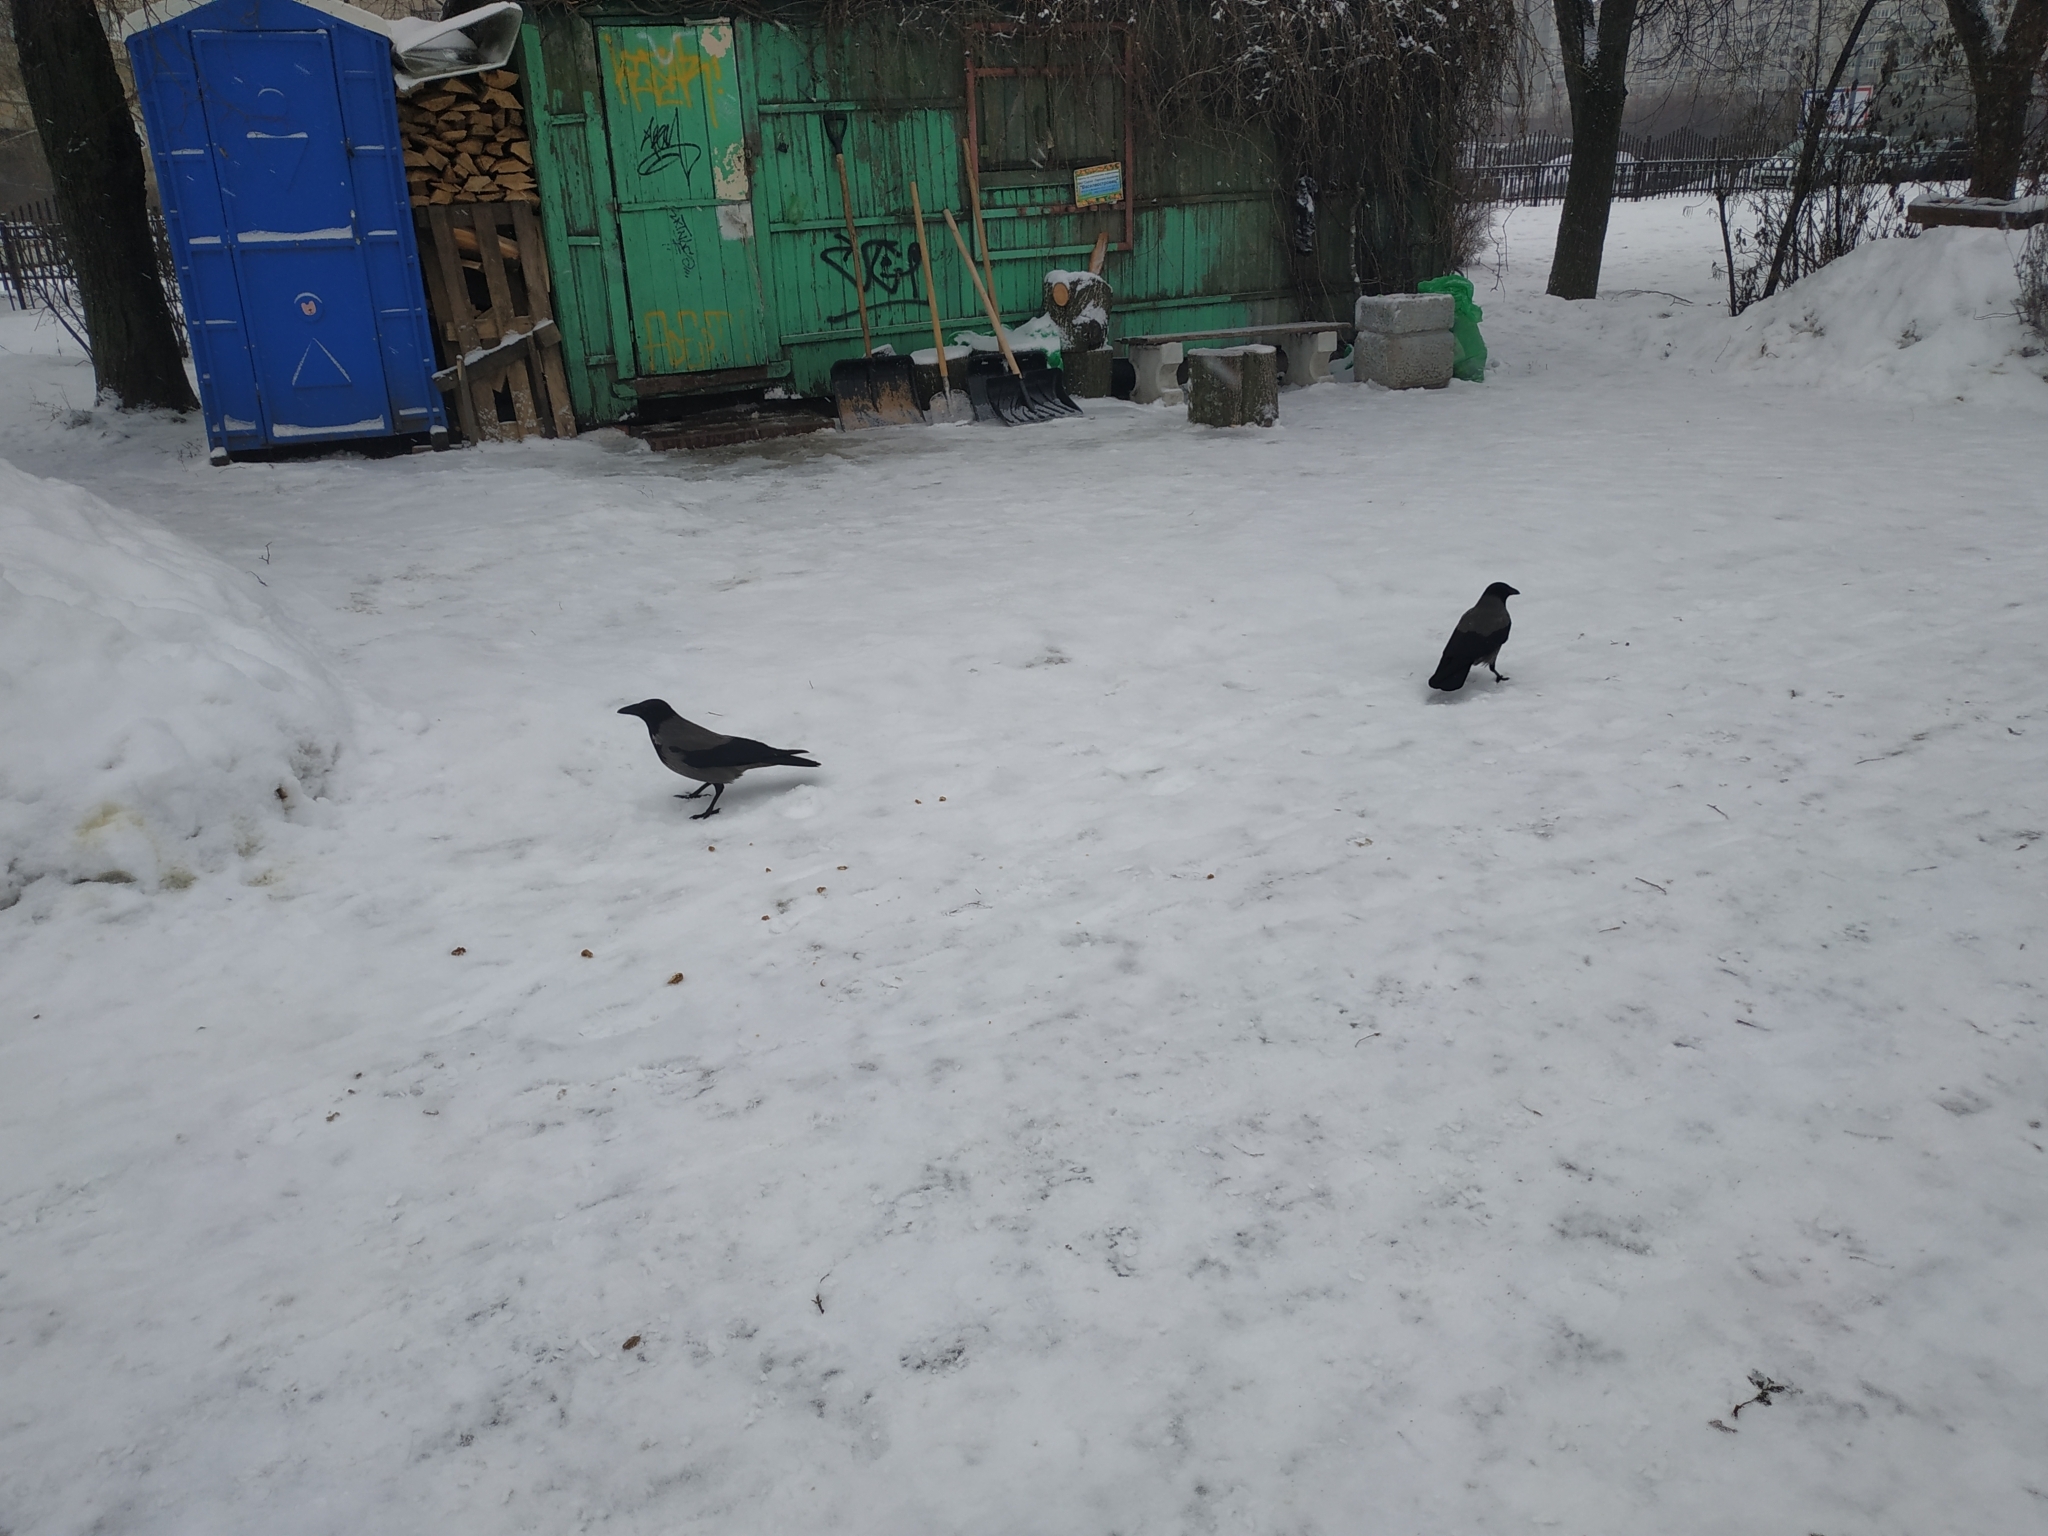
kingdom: Animalia
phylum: Chordata
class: Aves
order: Passeriformes
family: Corvidae
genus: Corvus
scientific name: Corvus cornix
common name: Hooded crow
